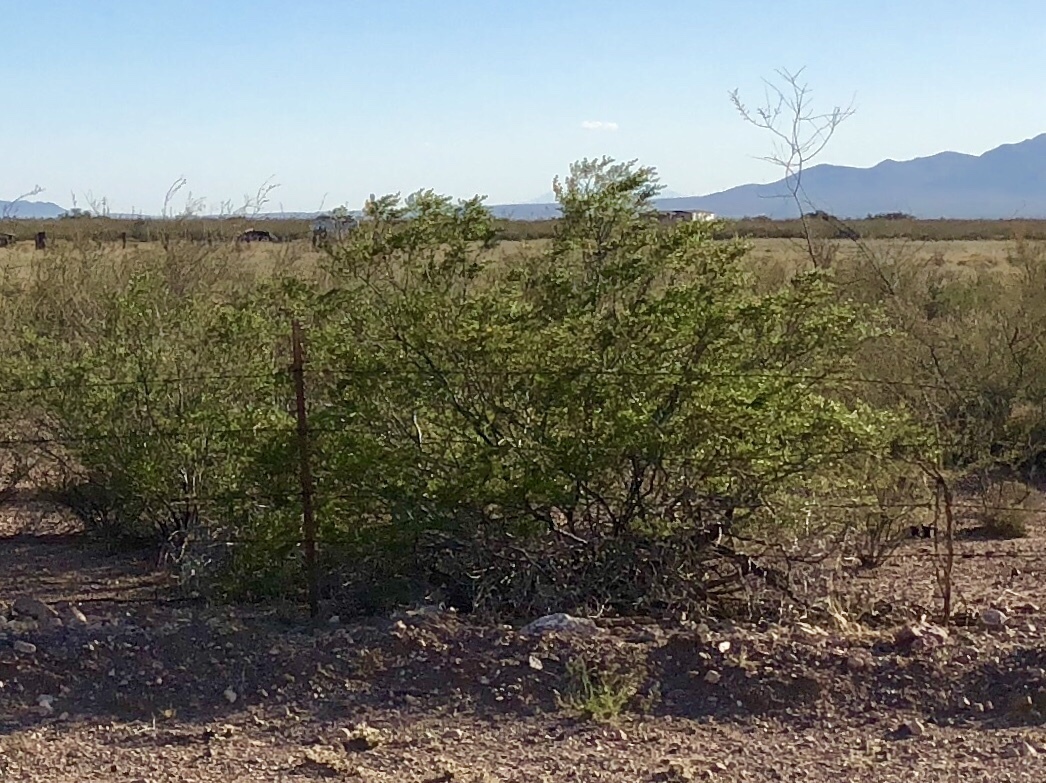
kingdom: Plantae
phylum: Tracheophyta
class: Magnoliopsida
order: Zygophyllales
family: Zygophyllaceae
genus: Larrea
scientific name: Larrea tridentata
